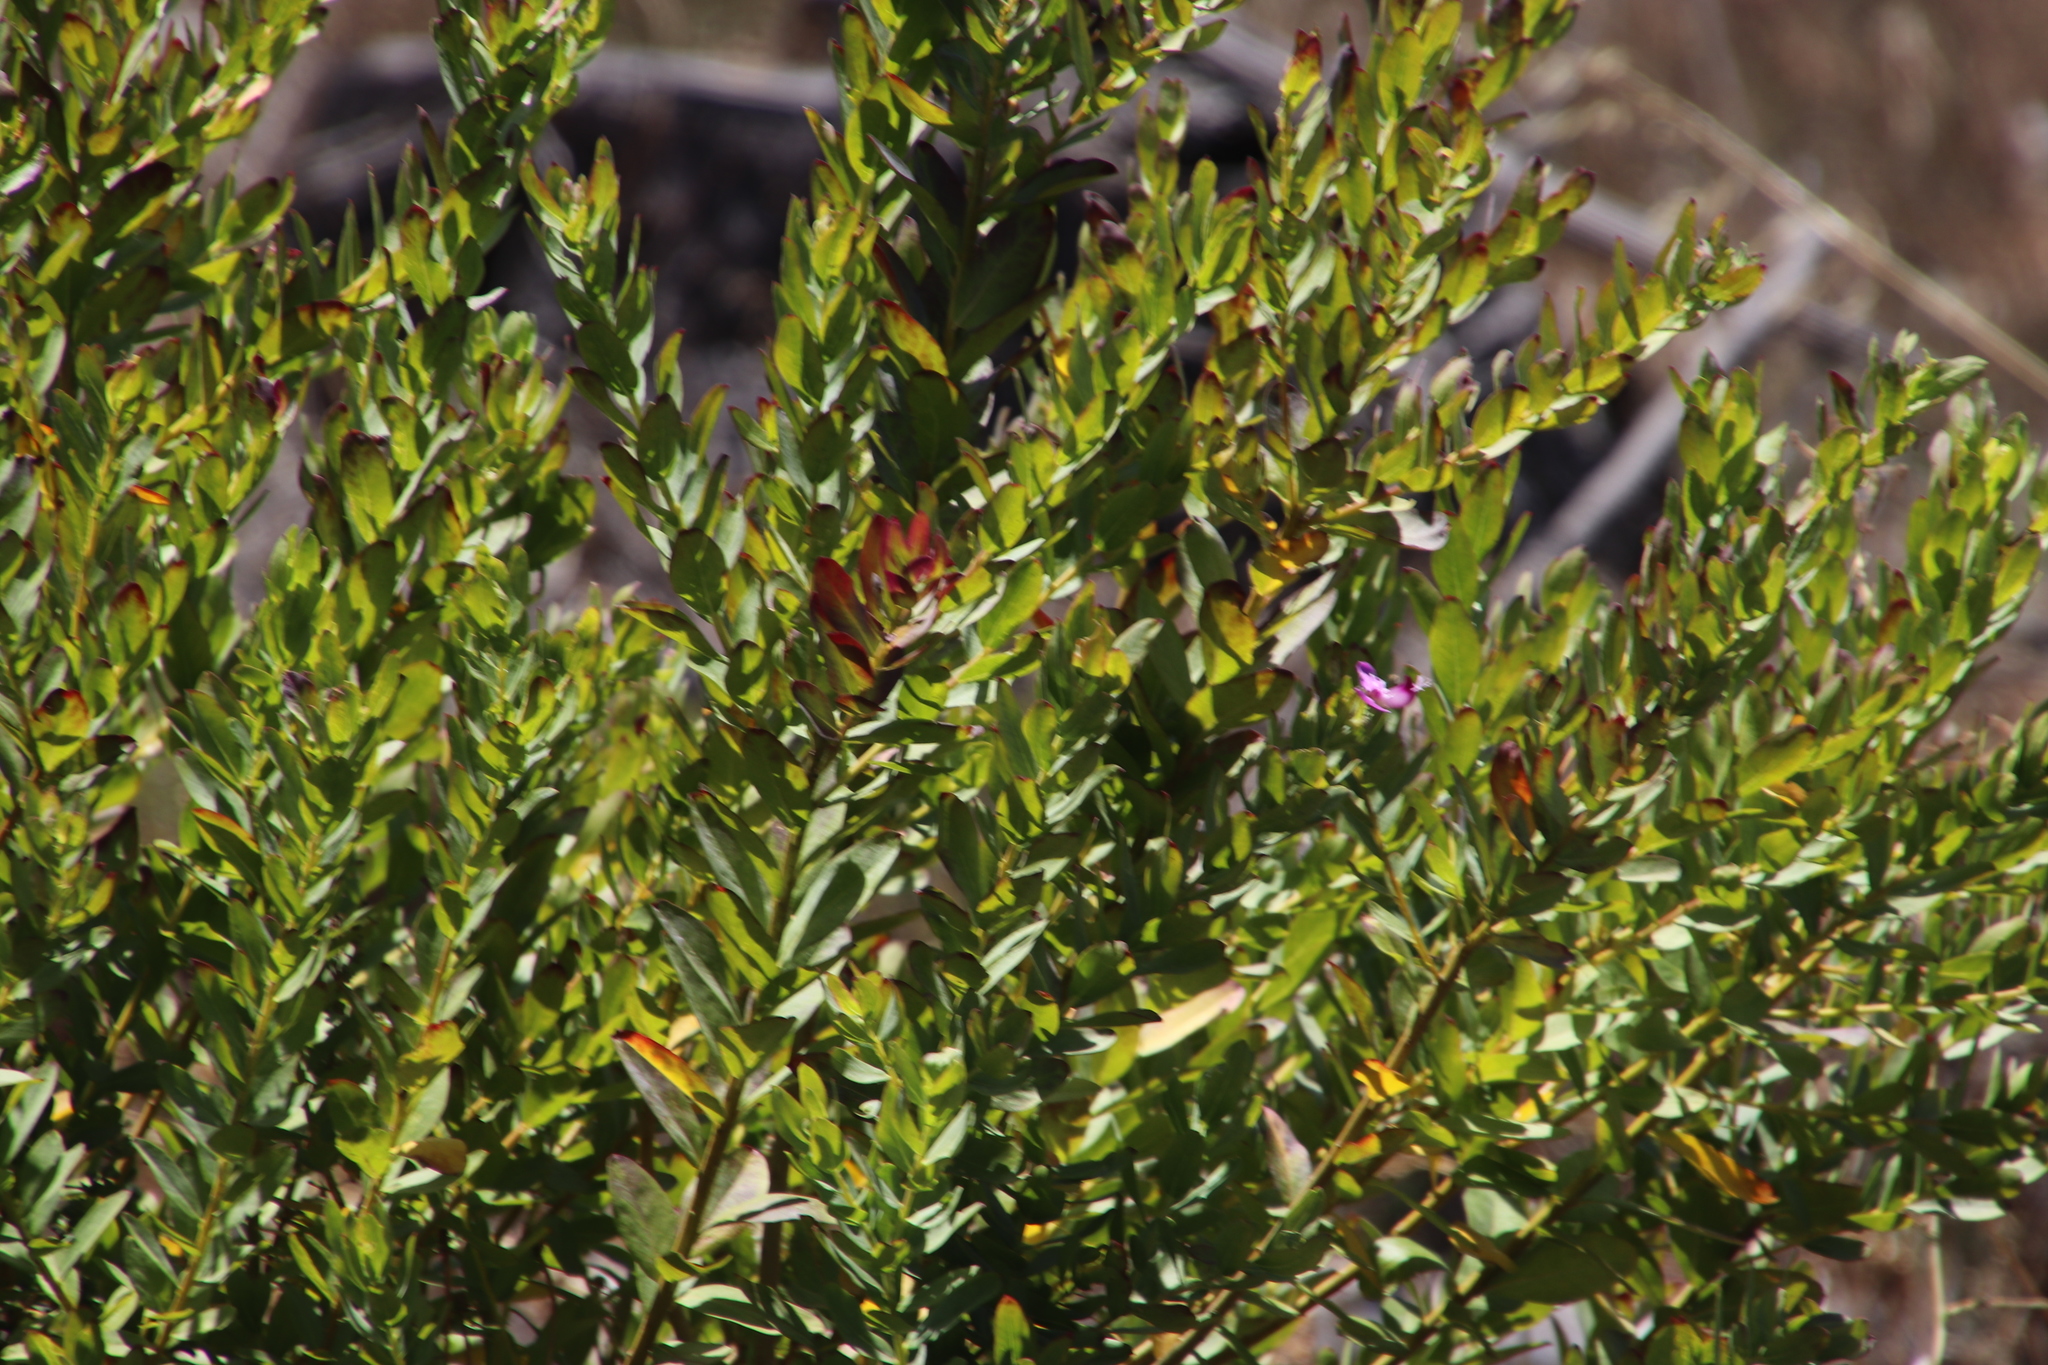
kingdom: Plantae
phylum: Tracheophyta
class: Magnoliopsida
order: Fabales
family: Polygalaceae
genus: Polygala
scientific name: Polygala myrtifolia
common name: Myrtle-leaf milkwort
